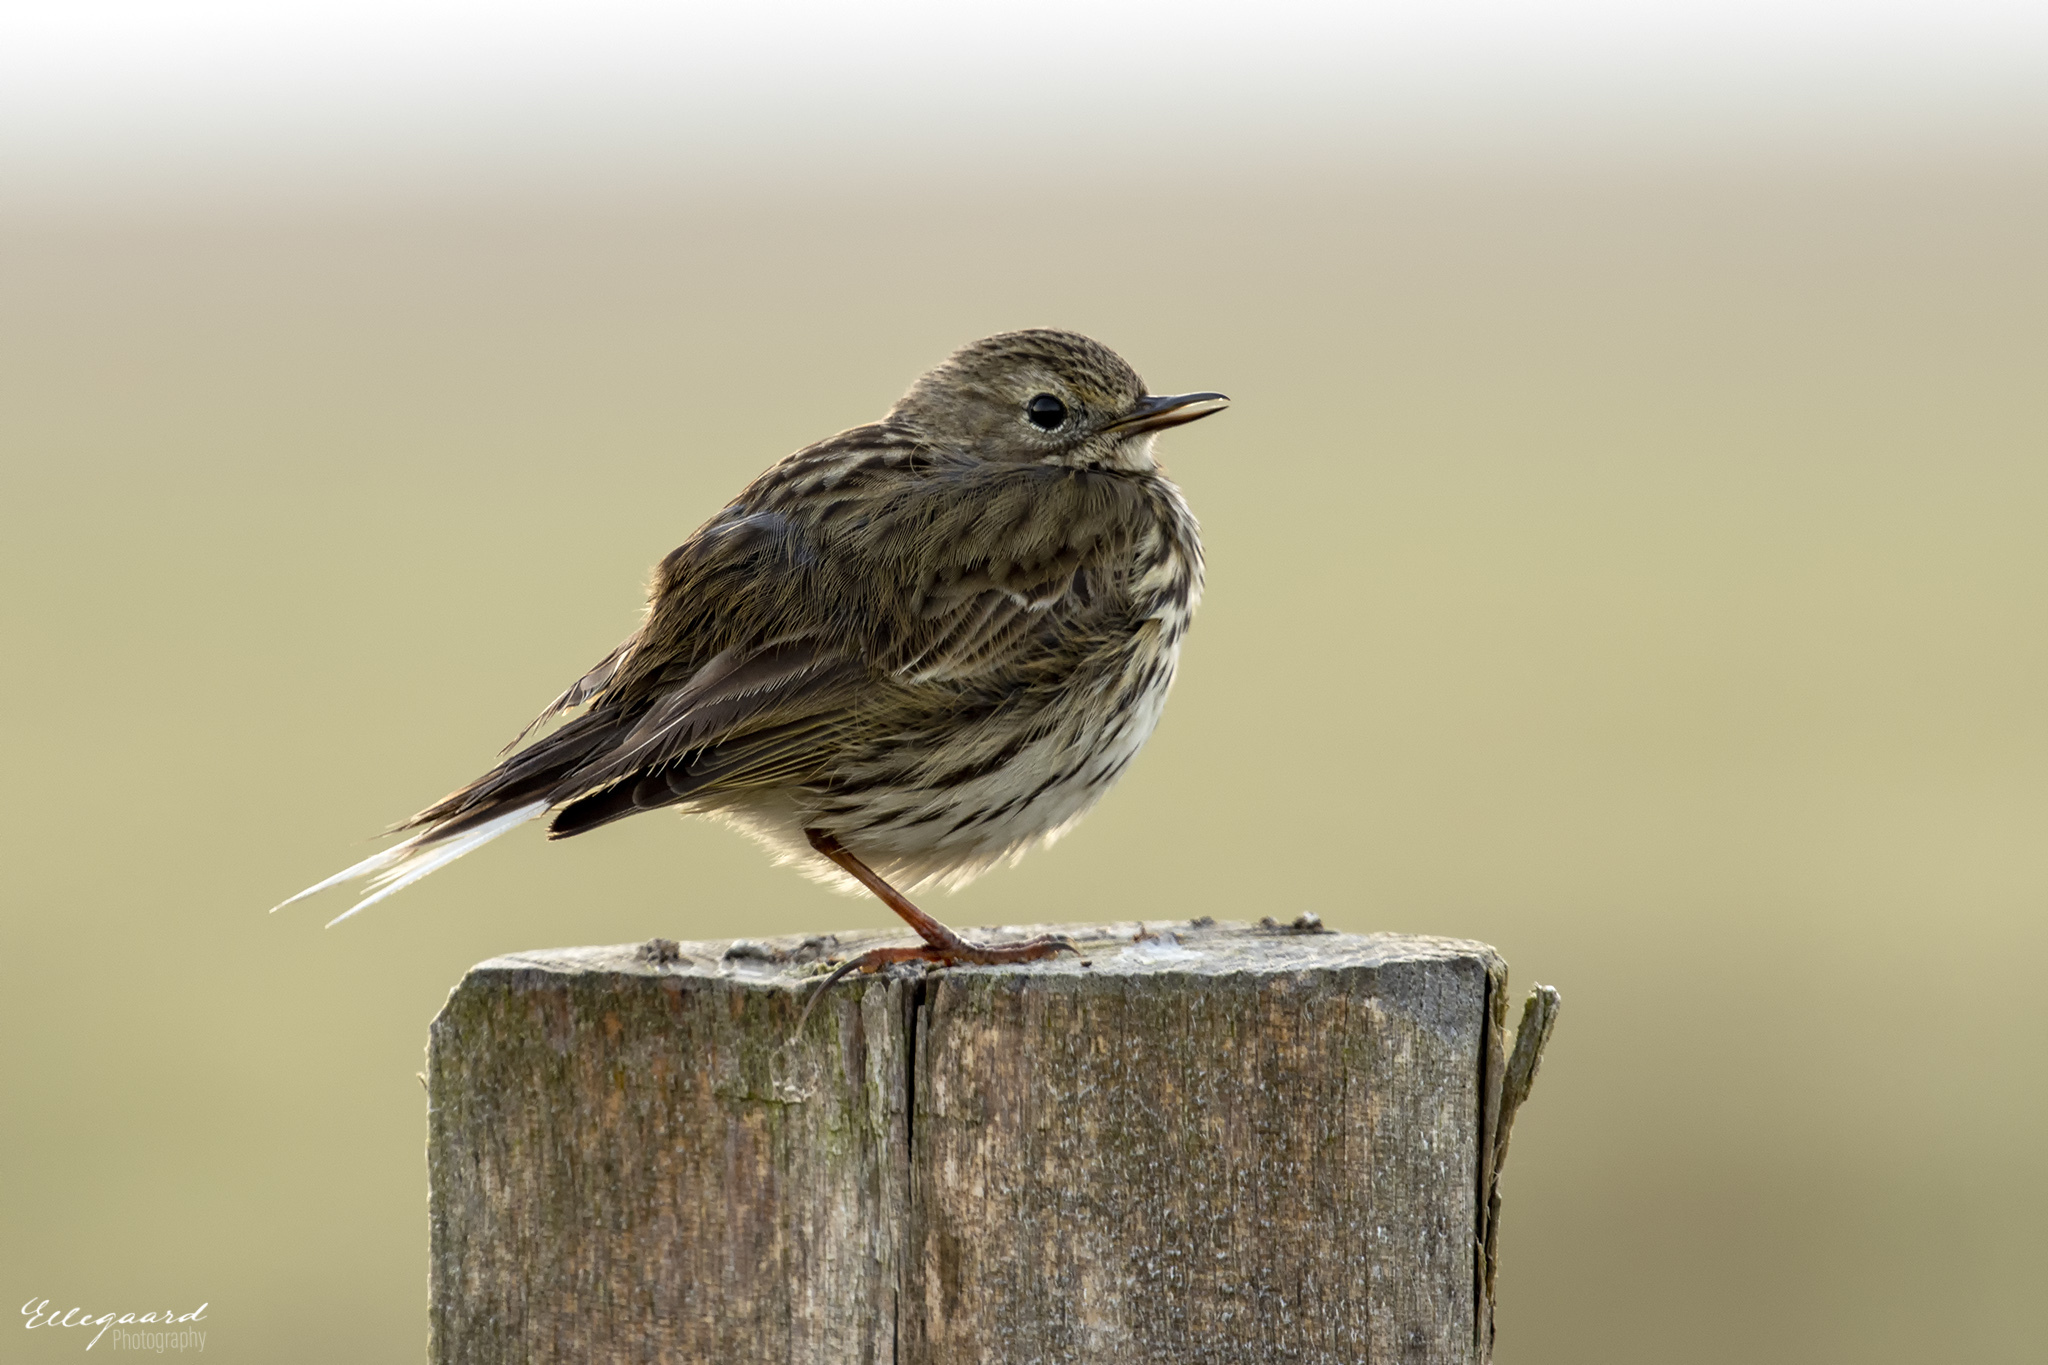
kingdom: Animalia
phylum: Chordata
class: Aves
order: Passeriformes
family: Motacillidae
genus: Anthus
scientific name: Anthus pratensis
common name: Meadow pipit
